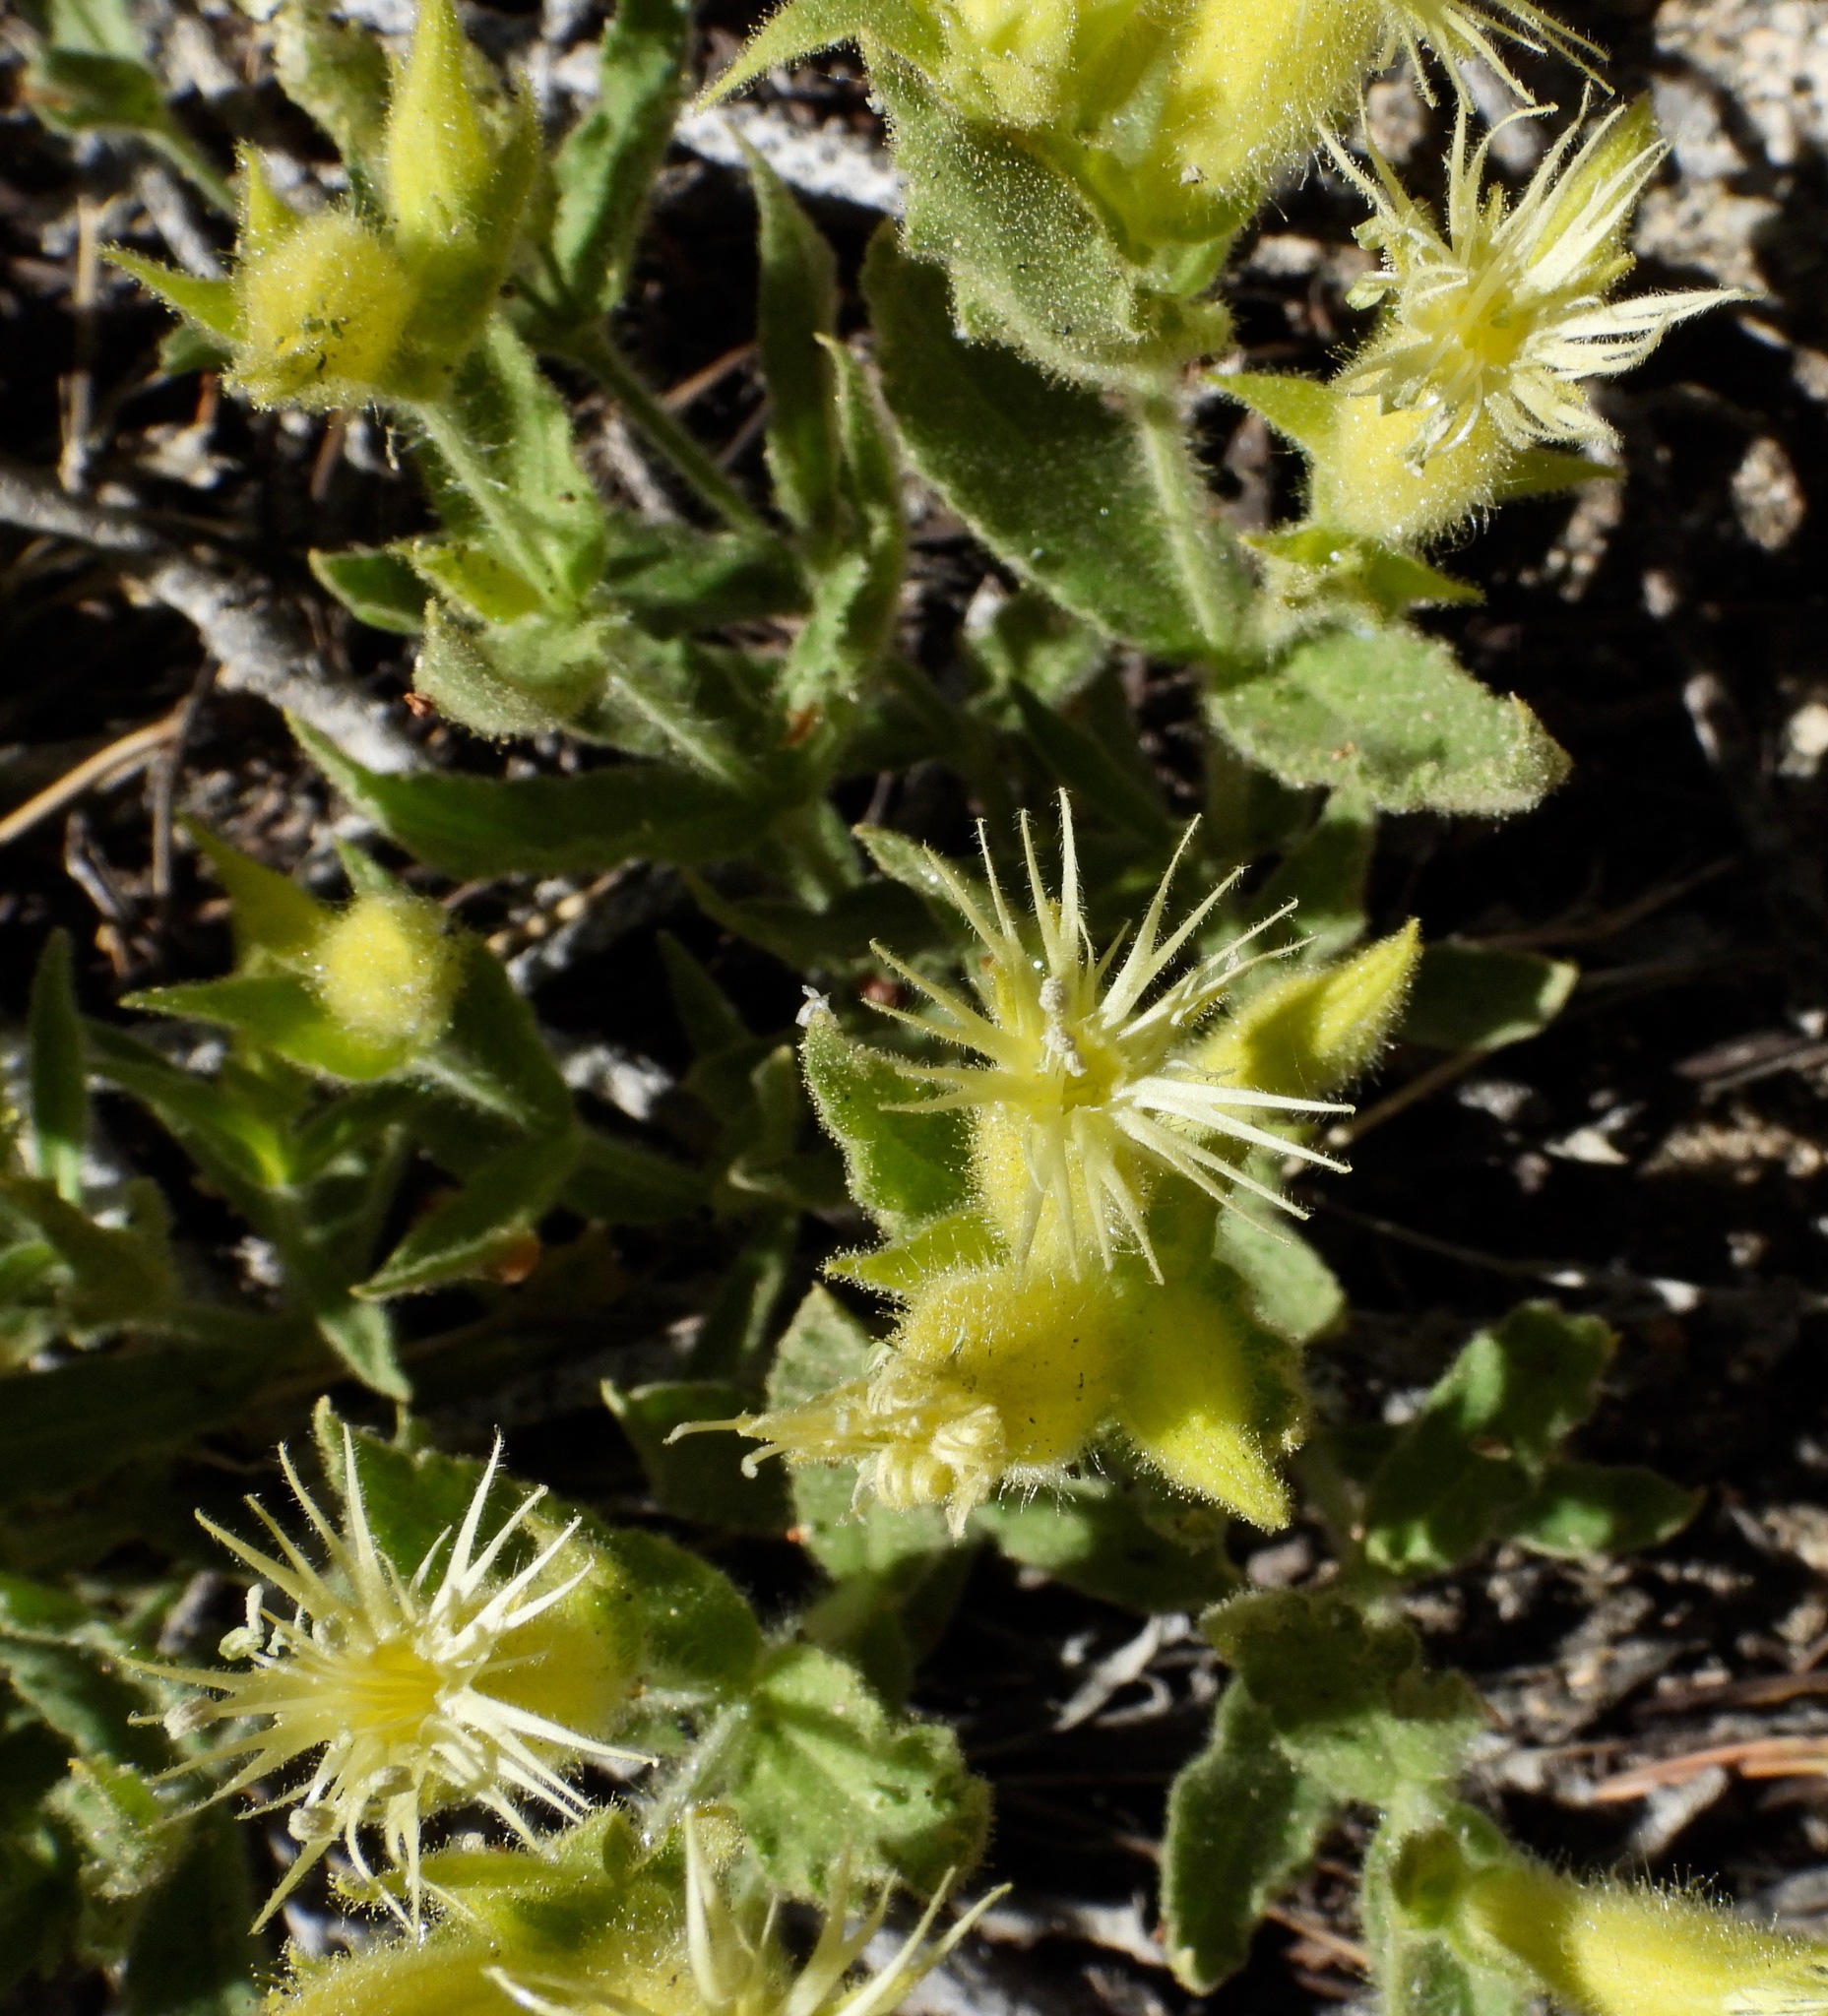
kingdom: Plantae
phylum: Tracheophyta
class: Magnoliopsida
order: Caryophyllales
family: Caryophyllaceae
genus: Silene
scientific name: Silene parishii
